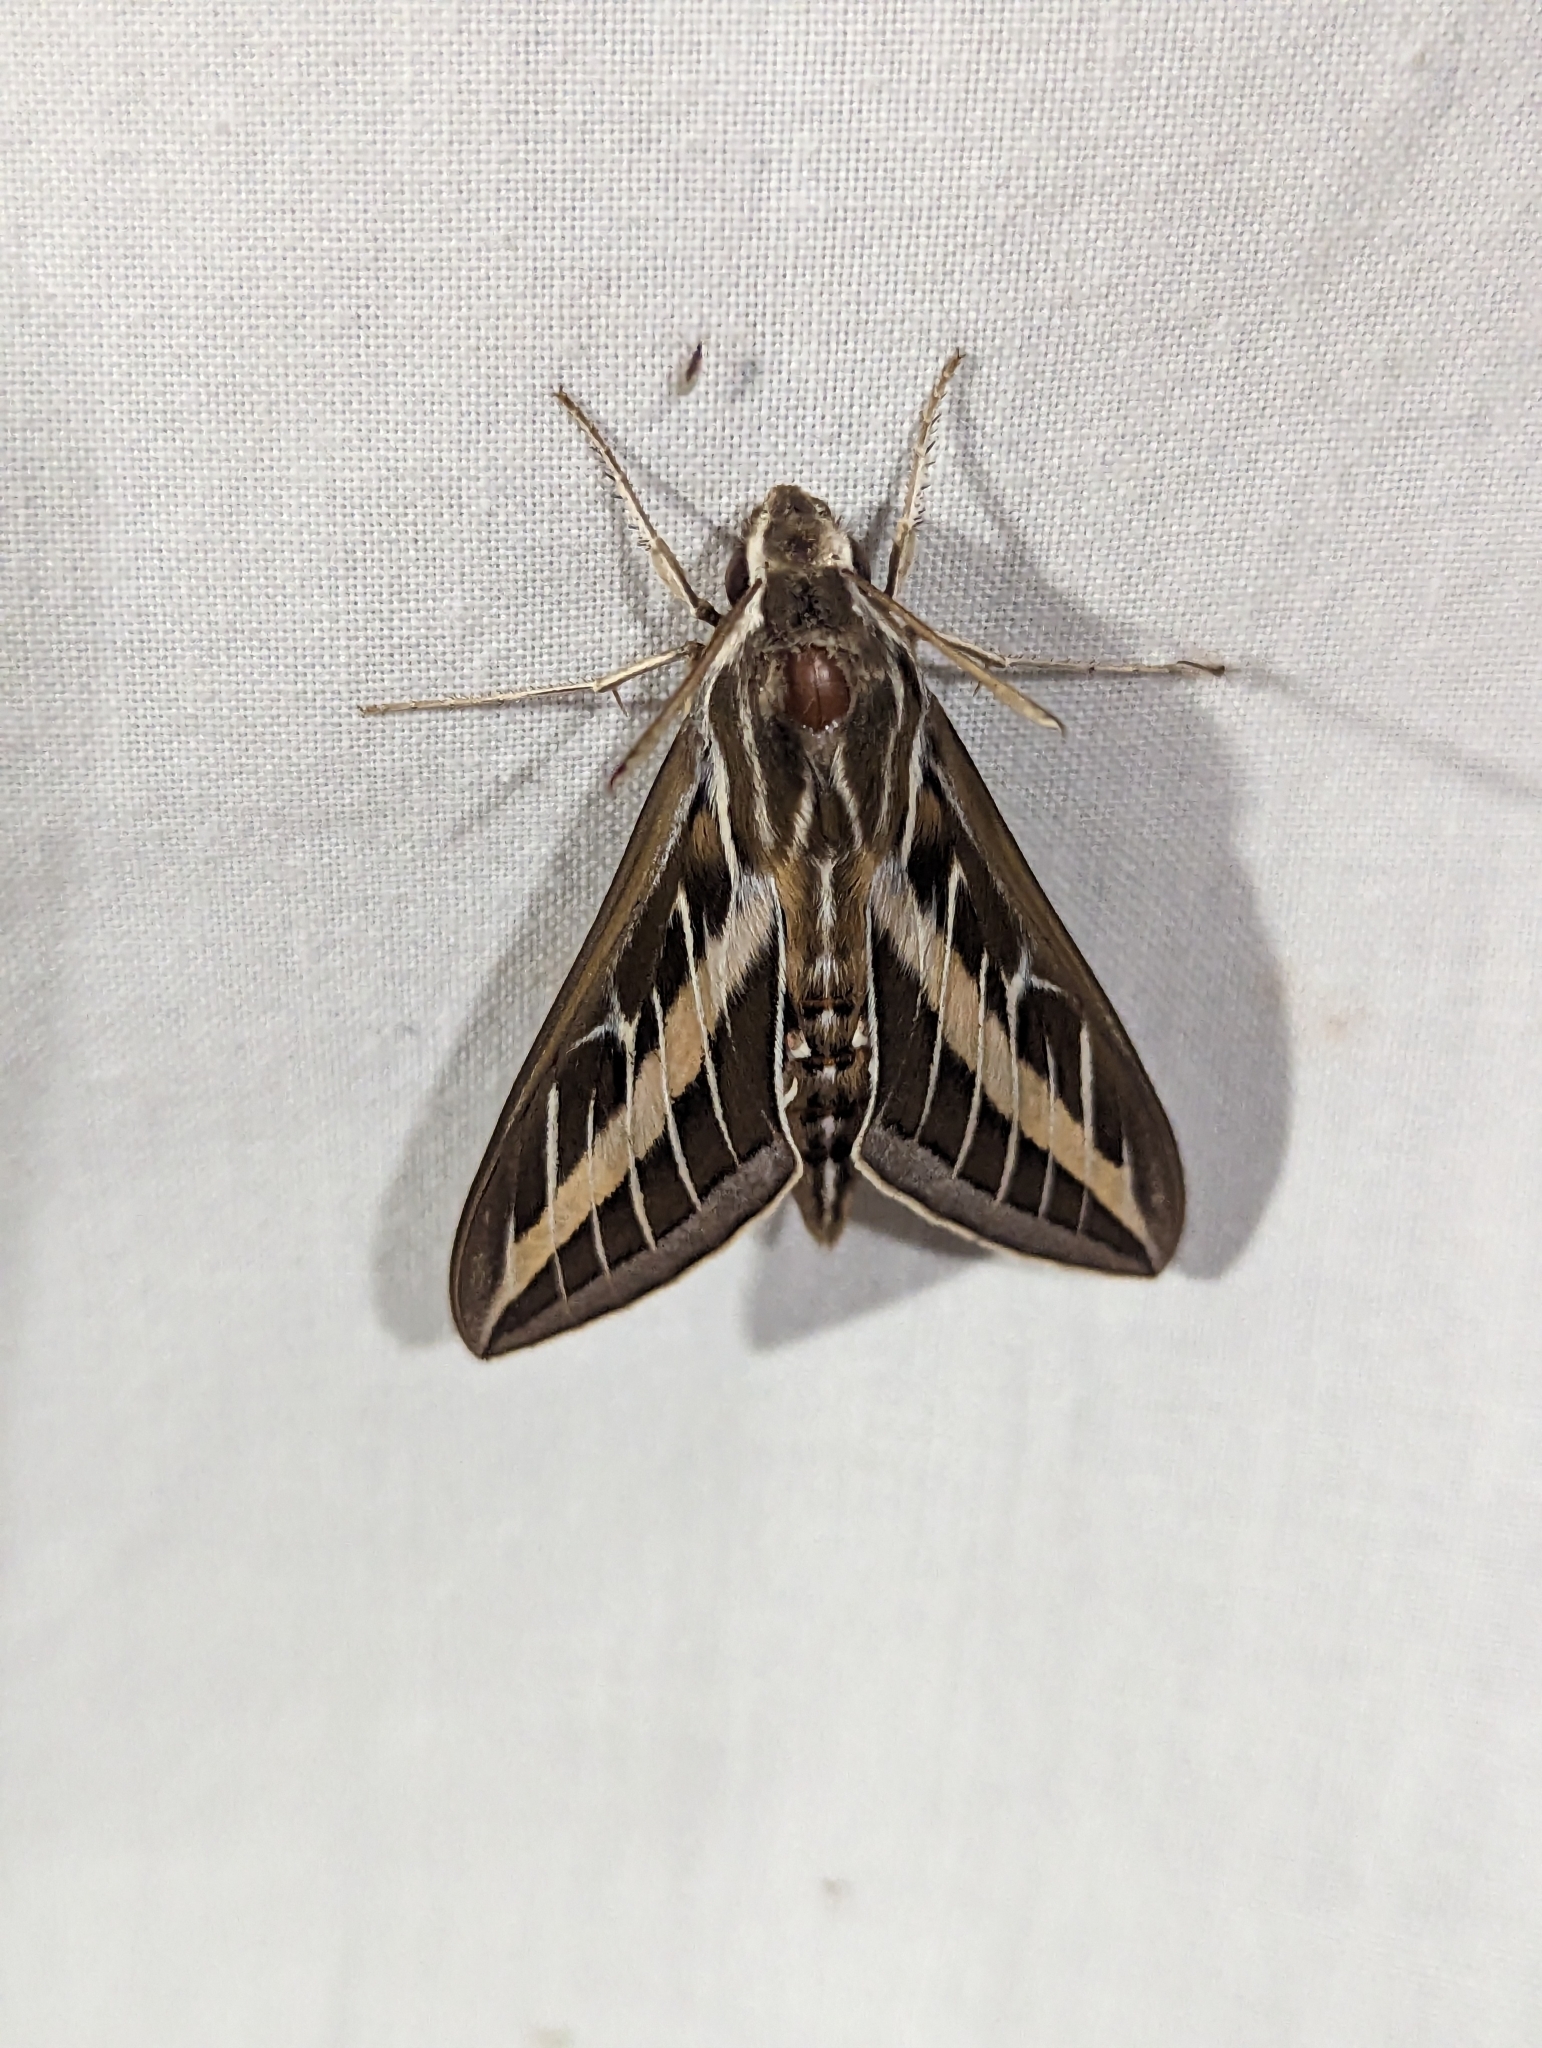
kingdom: Animalia
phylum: Arthropoda
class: Insecta
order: Lepidoptera
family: Sphingidae
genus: Hyles
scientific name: Hyles lineata
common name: White-lined sphinx
